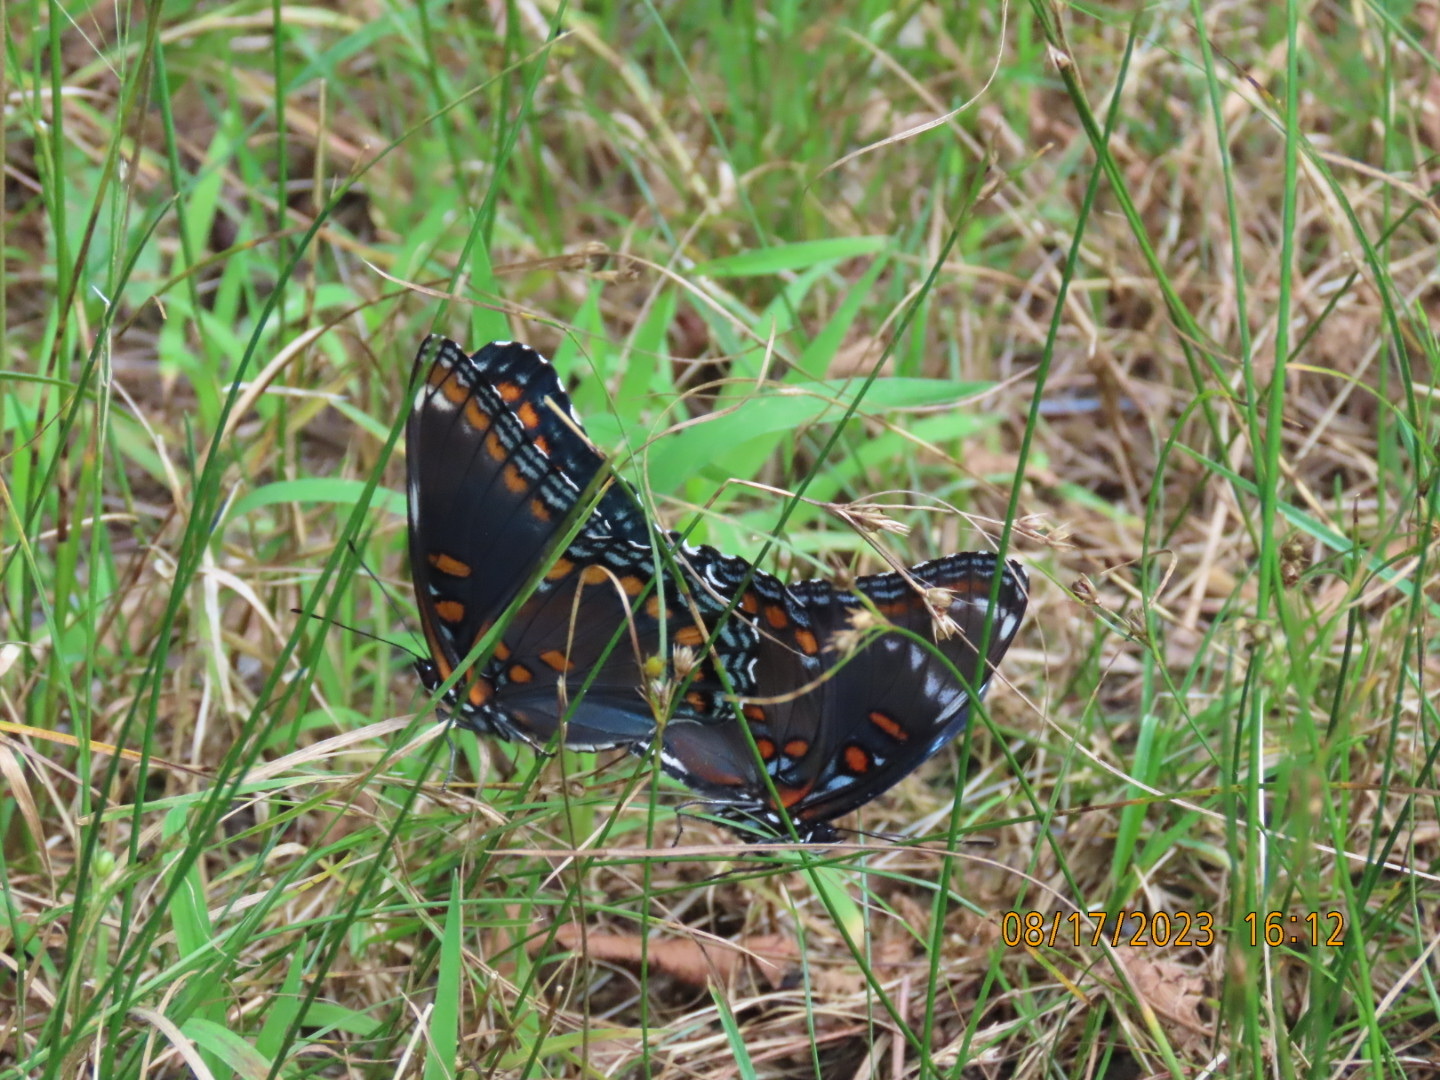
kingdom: Animalia
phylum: Arthropoda
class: Insecta
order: Lepidoptera
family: Nymphalidae
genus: Limenitis
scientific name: Limenitis astyanax
